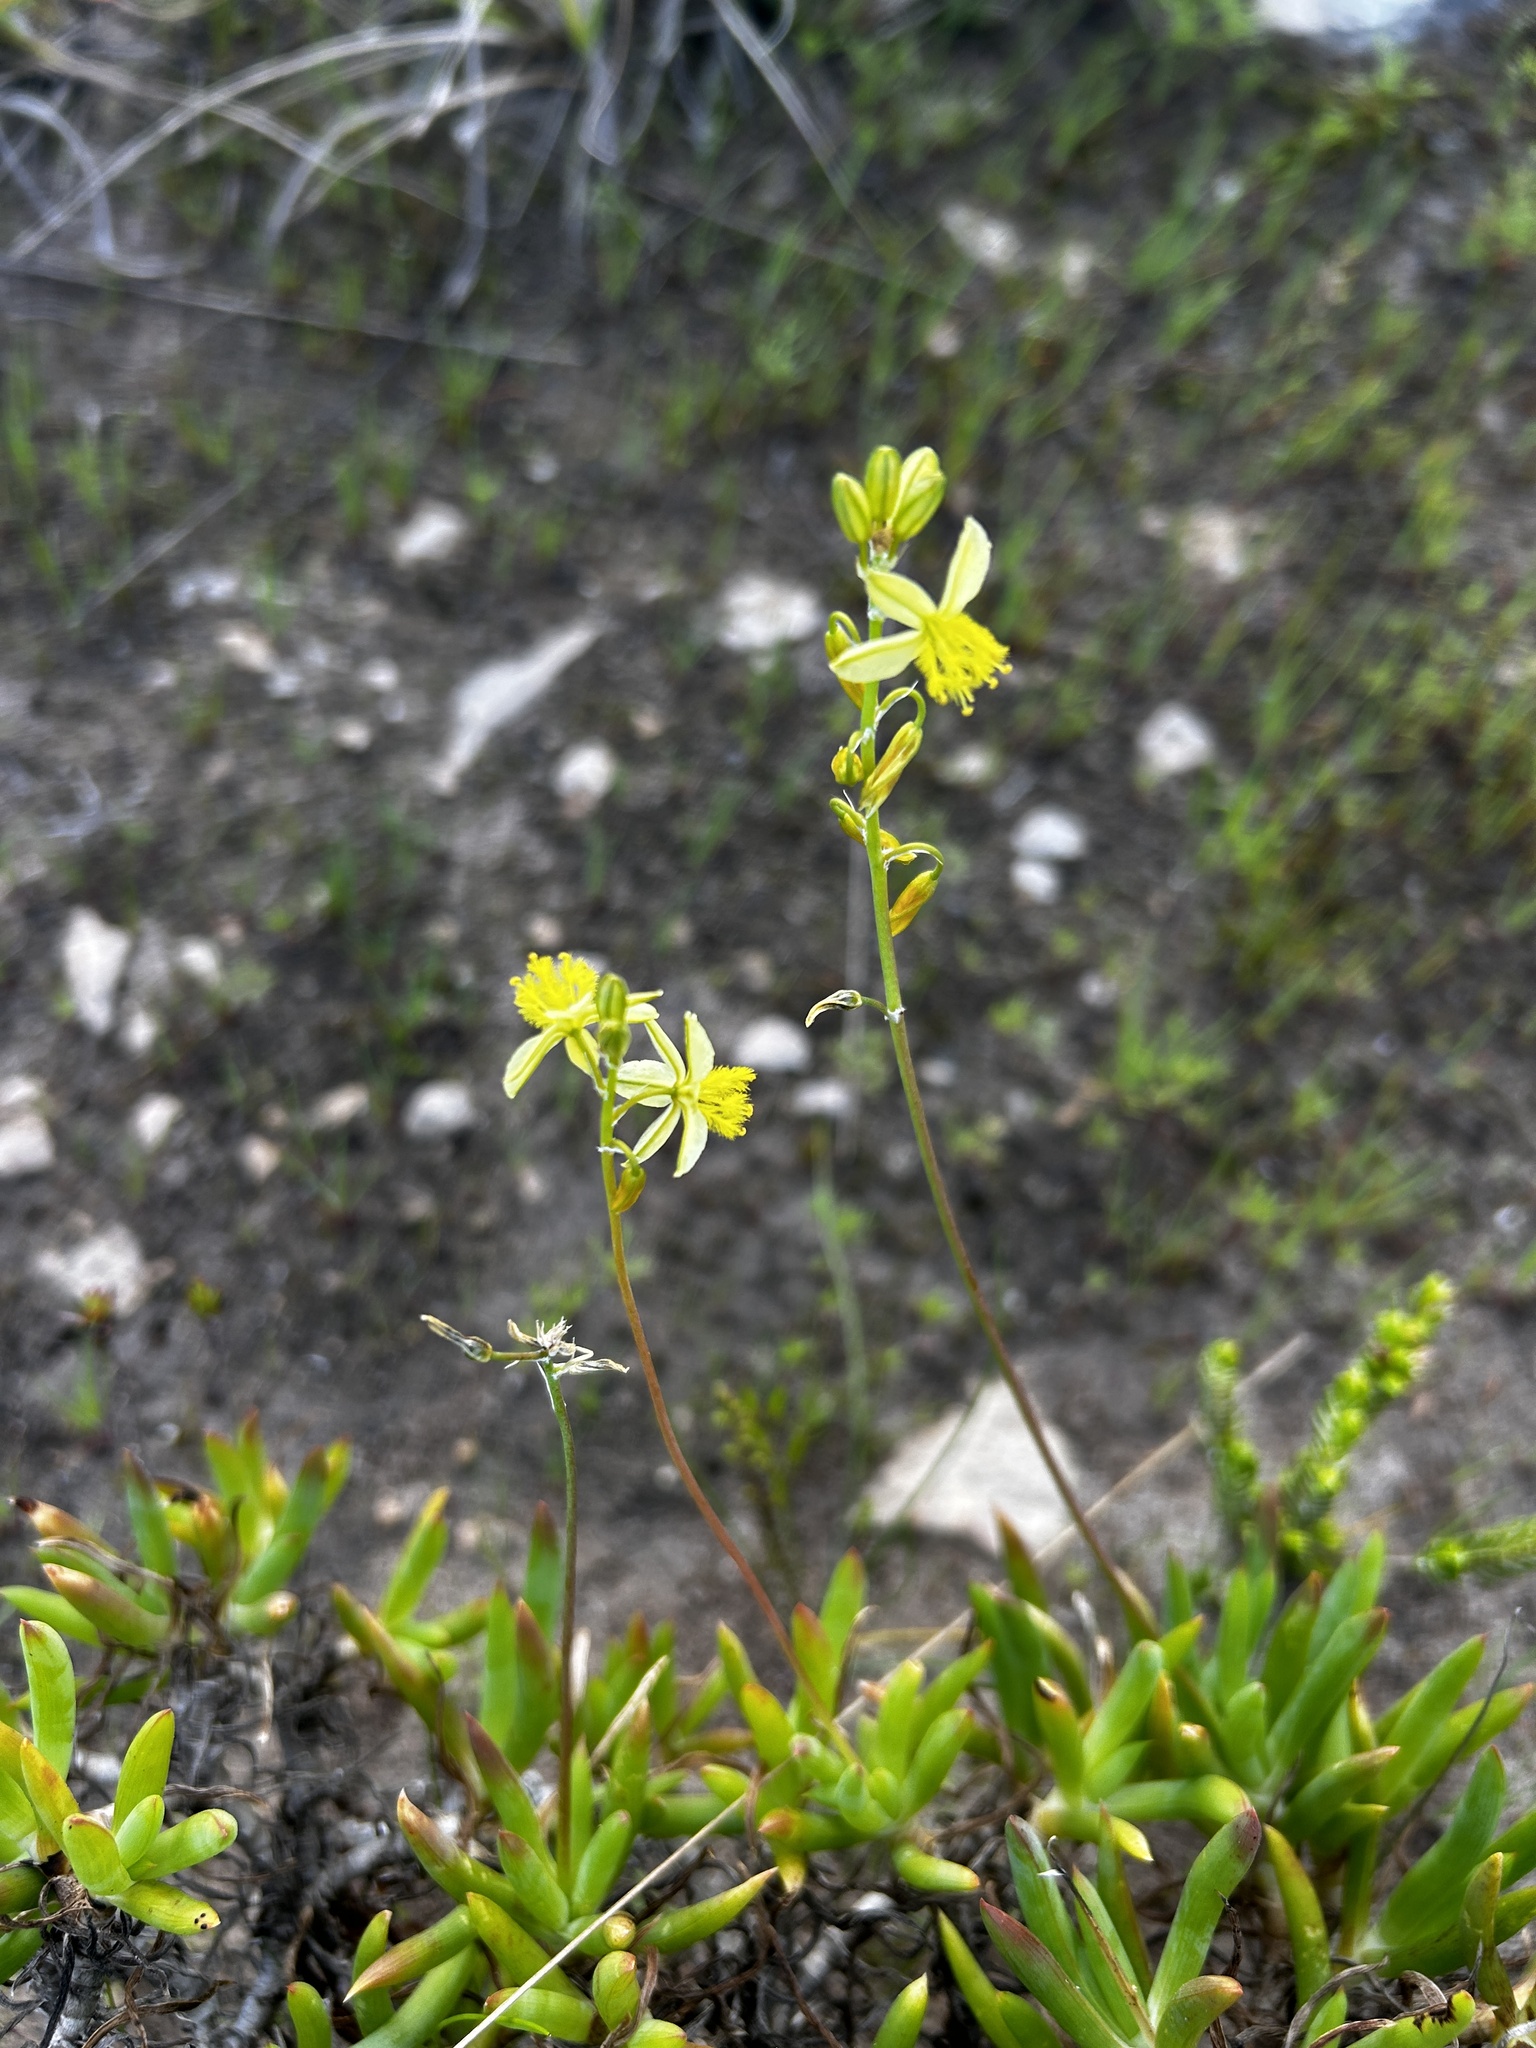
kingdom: Plantae
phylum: Tracheophyta
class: Liliopsida
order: Asparagales
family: Asphodelaceae
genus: Bulbine
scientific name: Bulbine frutescens
